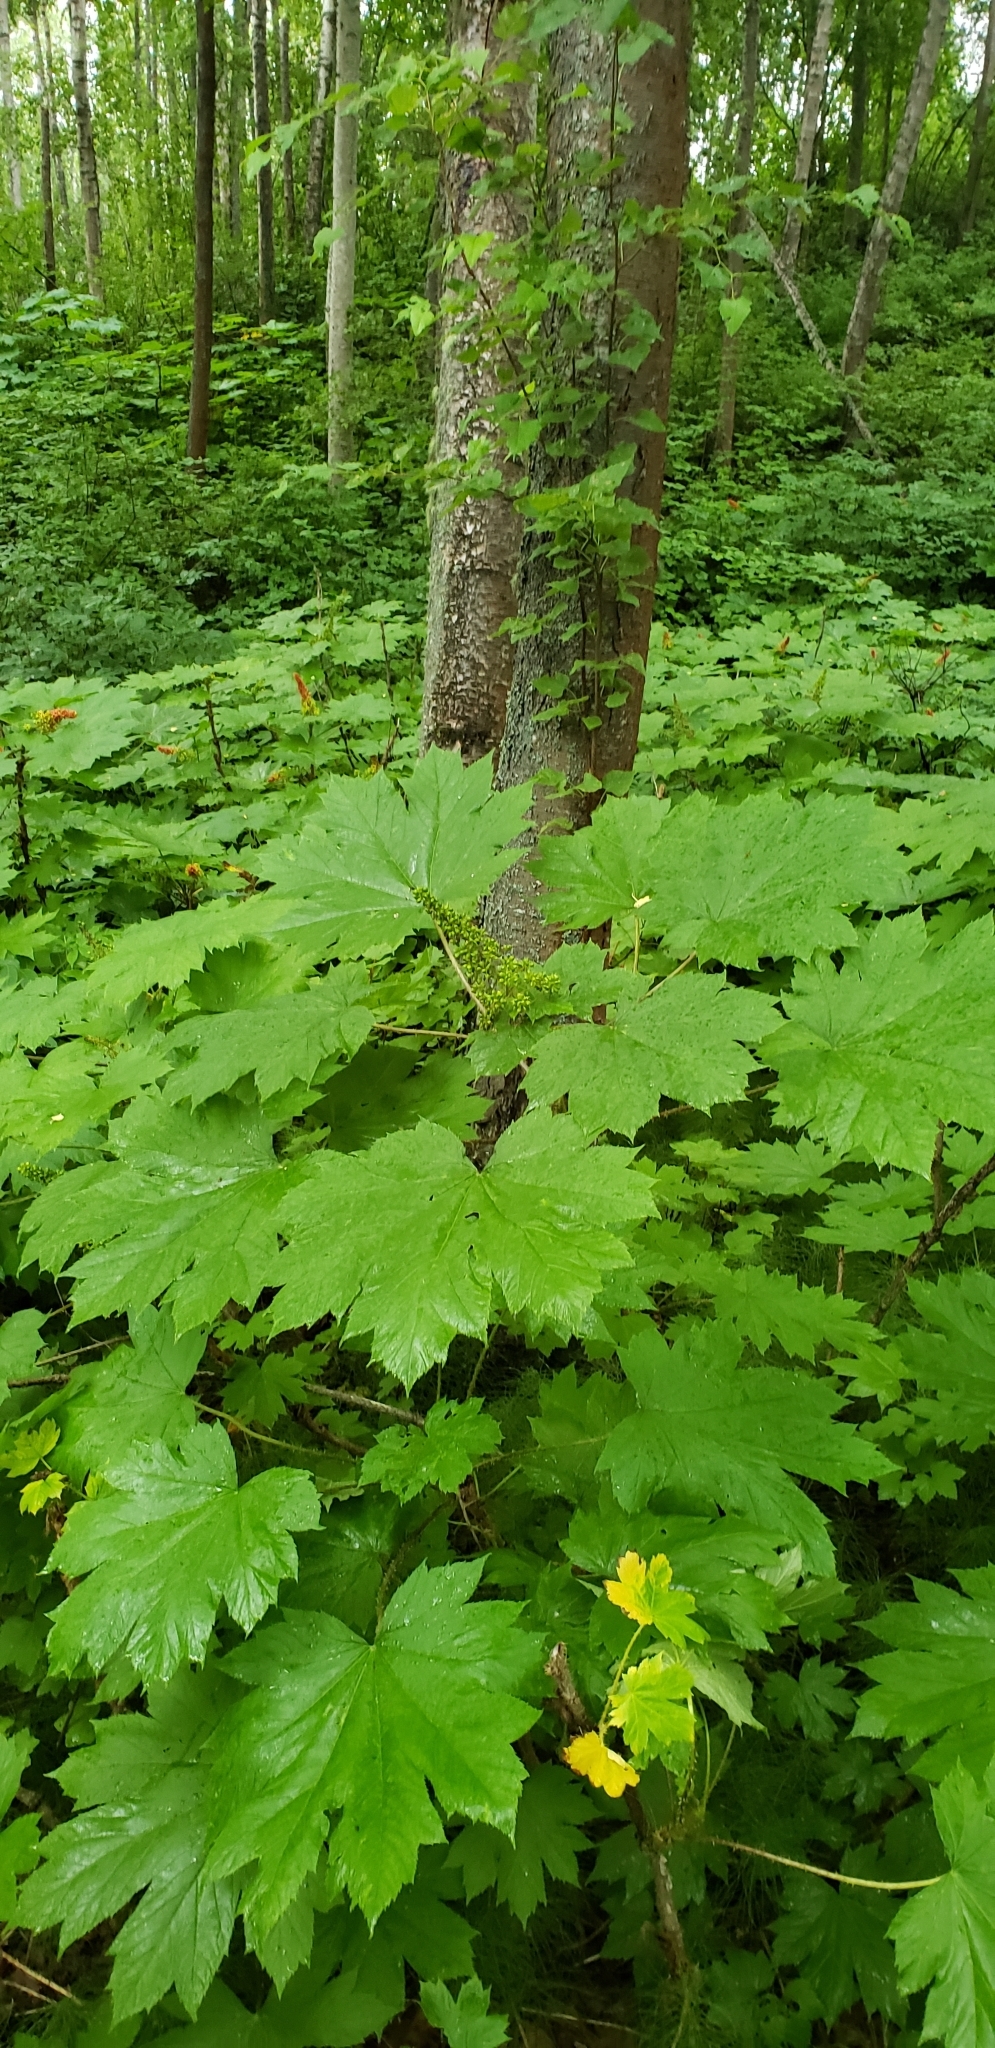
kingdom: Plantae
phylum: Tracheophyta
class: Magnoliopsida
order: Apiales
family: Araliaceae
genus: Oplopanax
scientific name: Oplopanax horridus
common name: Devil's walking-stick
